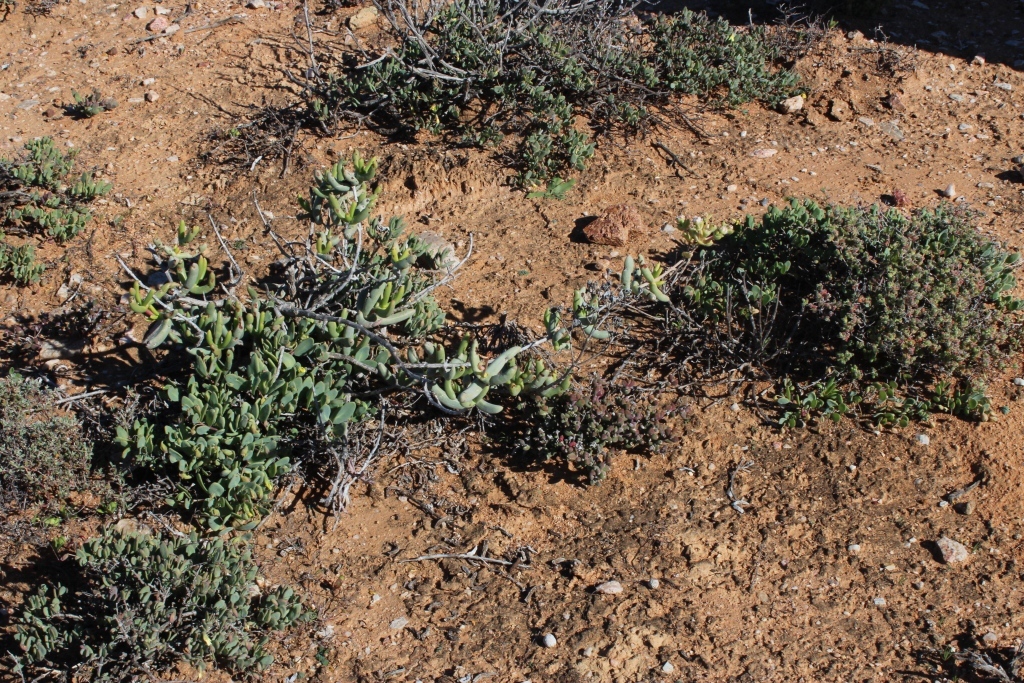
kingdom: Plantae
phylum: Tracheophyta
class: Magnoliopsida
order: Caryophyllales
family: Aizoaceae
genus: Stoeberia
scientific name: Stoeberia frutescens
